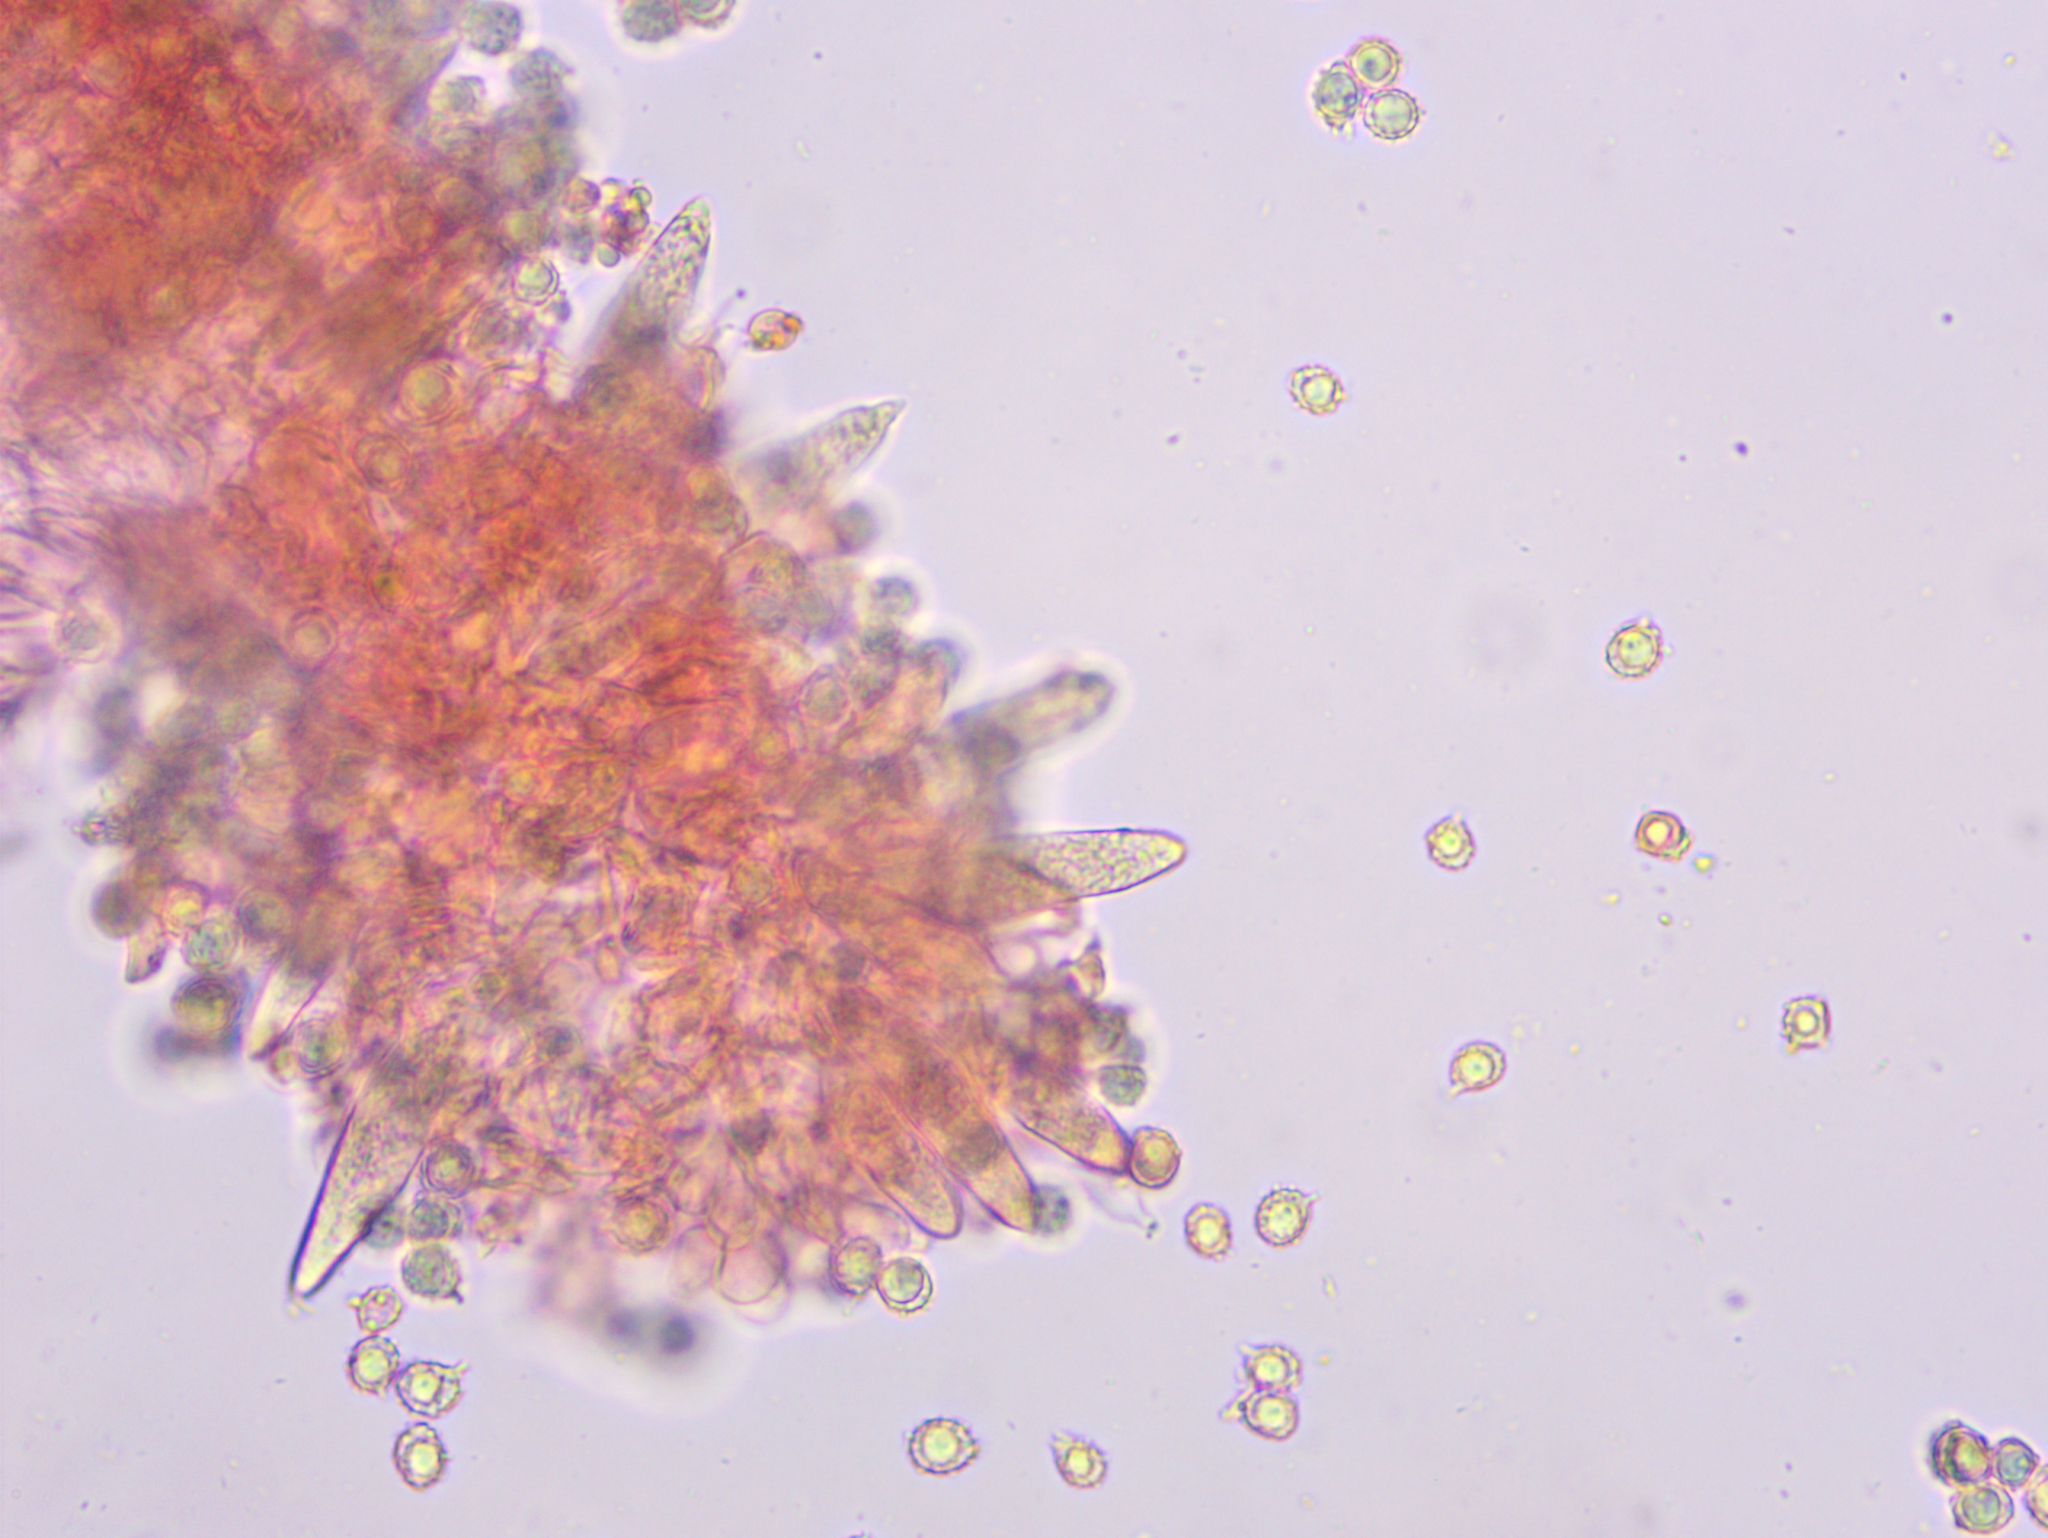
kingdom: Fungi
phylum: Basidiomycota
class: Agaricomycetes
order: Russulales
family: Russulaceae
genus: Russula
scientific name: Russula sanguinea
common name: Bloody brittlegill
